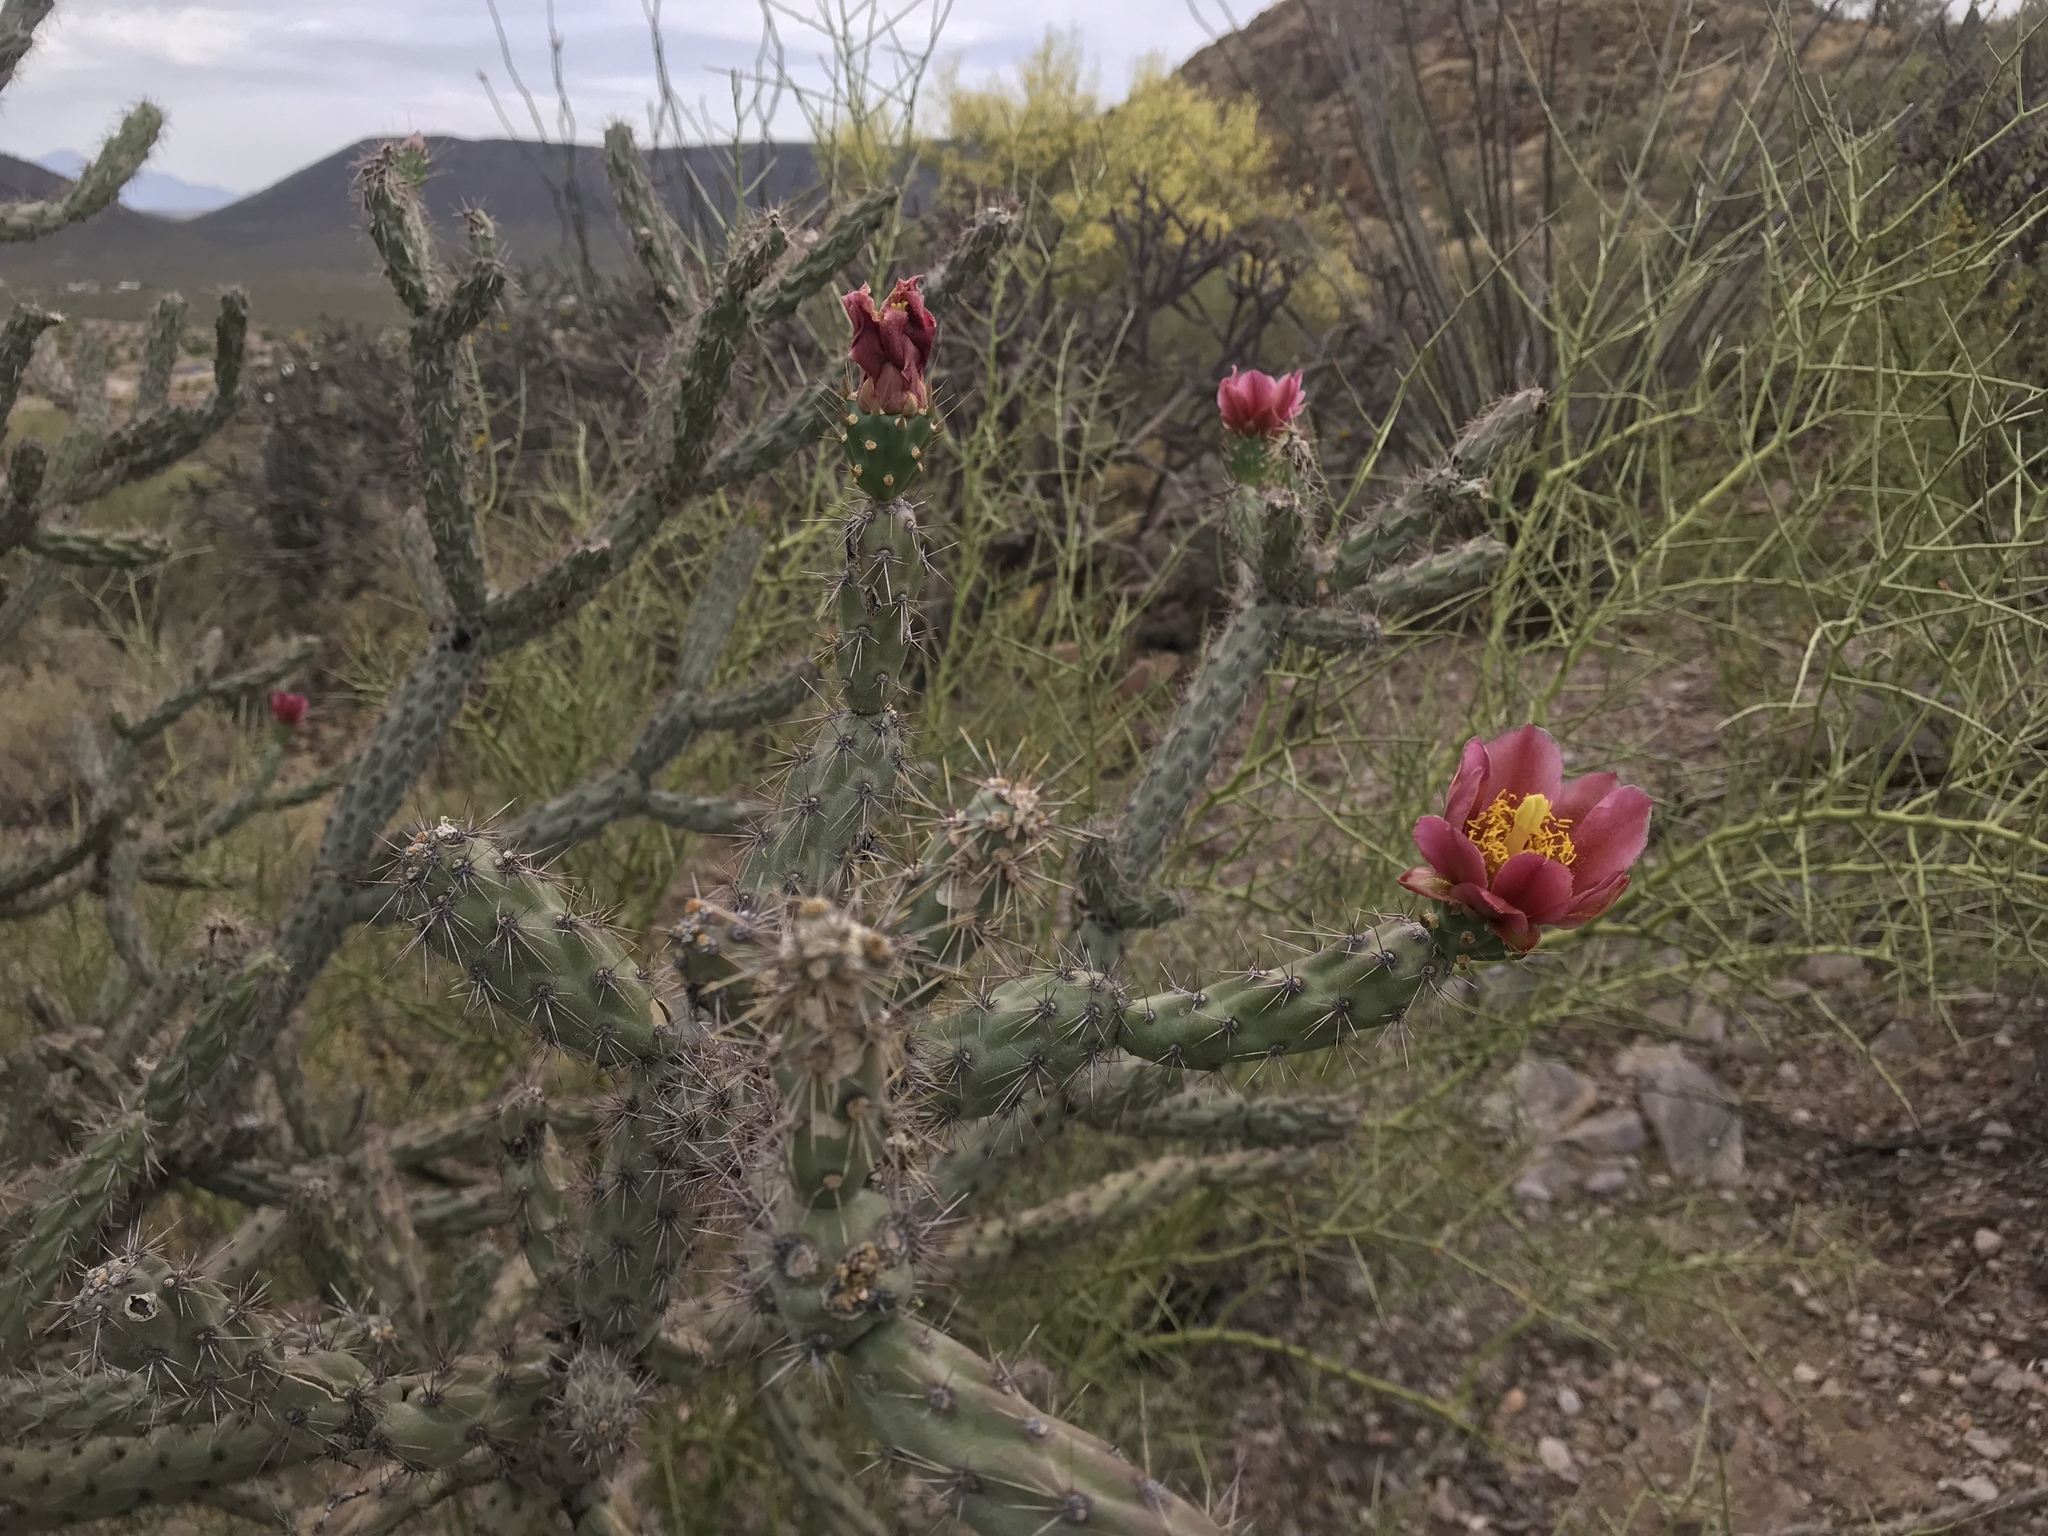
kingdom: Plantae
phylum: Tracheophyta
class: Magnoliopsida
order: Caryophyllales
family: Cactaceae
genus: Cylindropuntia
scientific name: Cylindropuntia thurberi
